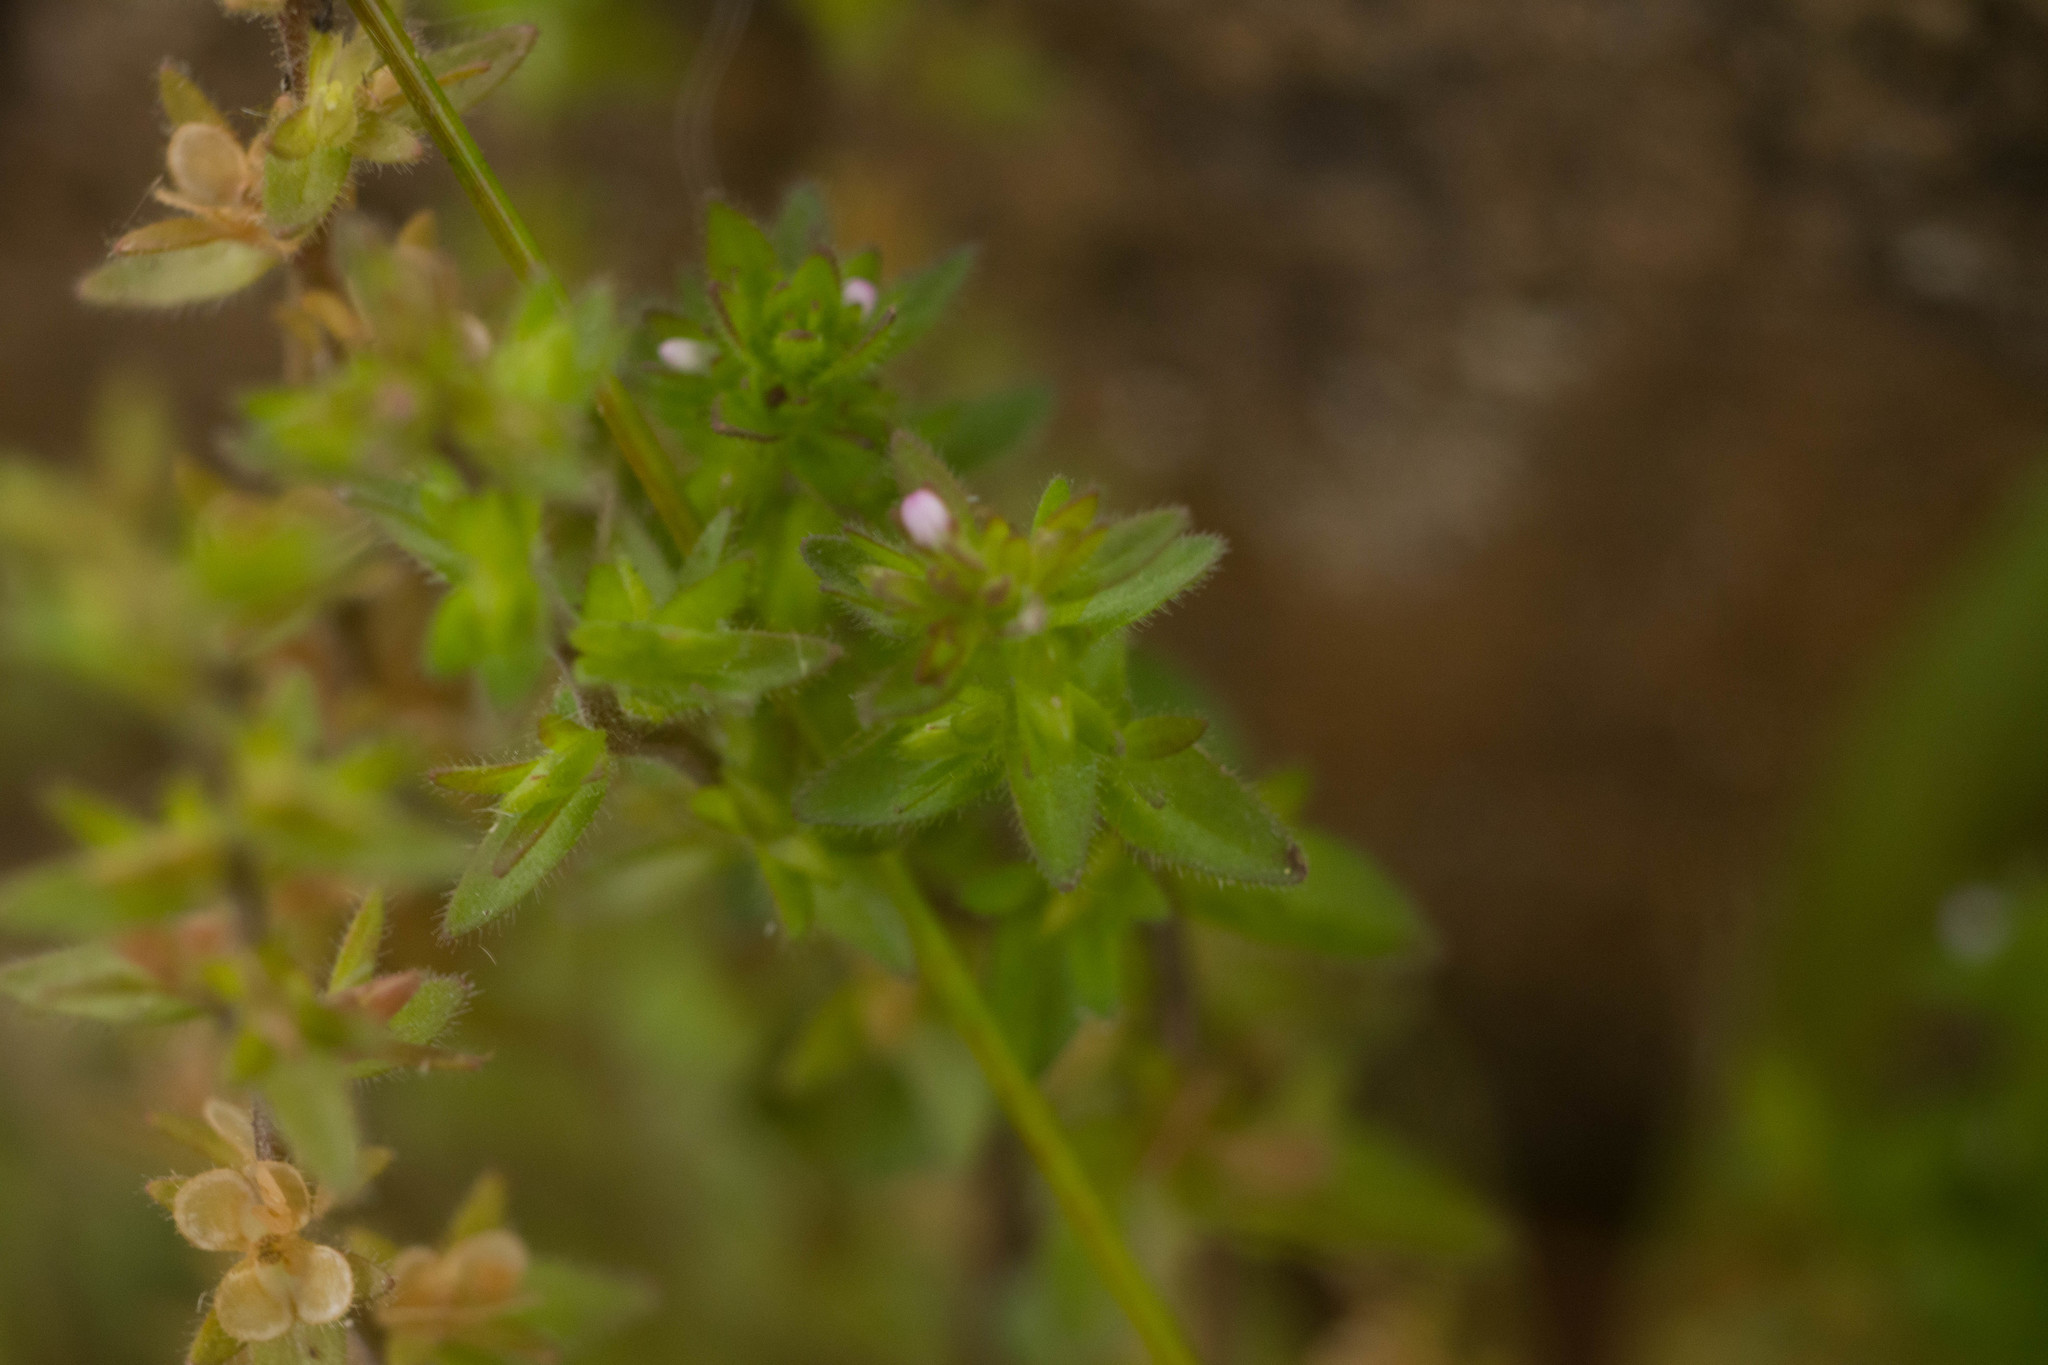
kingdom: Plantae
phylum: Tracheophyta
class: Magnoliopsida
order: Lamiales
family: Plantaginaceae
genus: Veronica
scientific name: Veronica arvensis
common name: Corn speedwell
